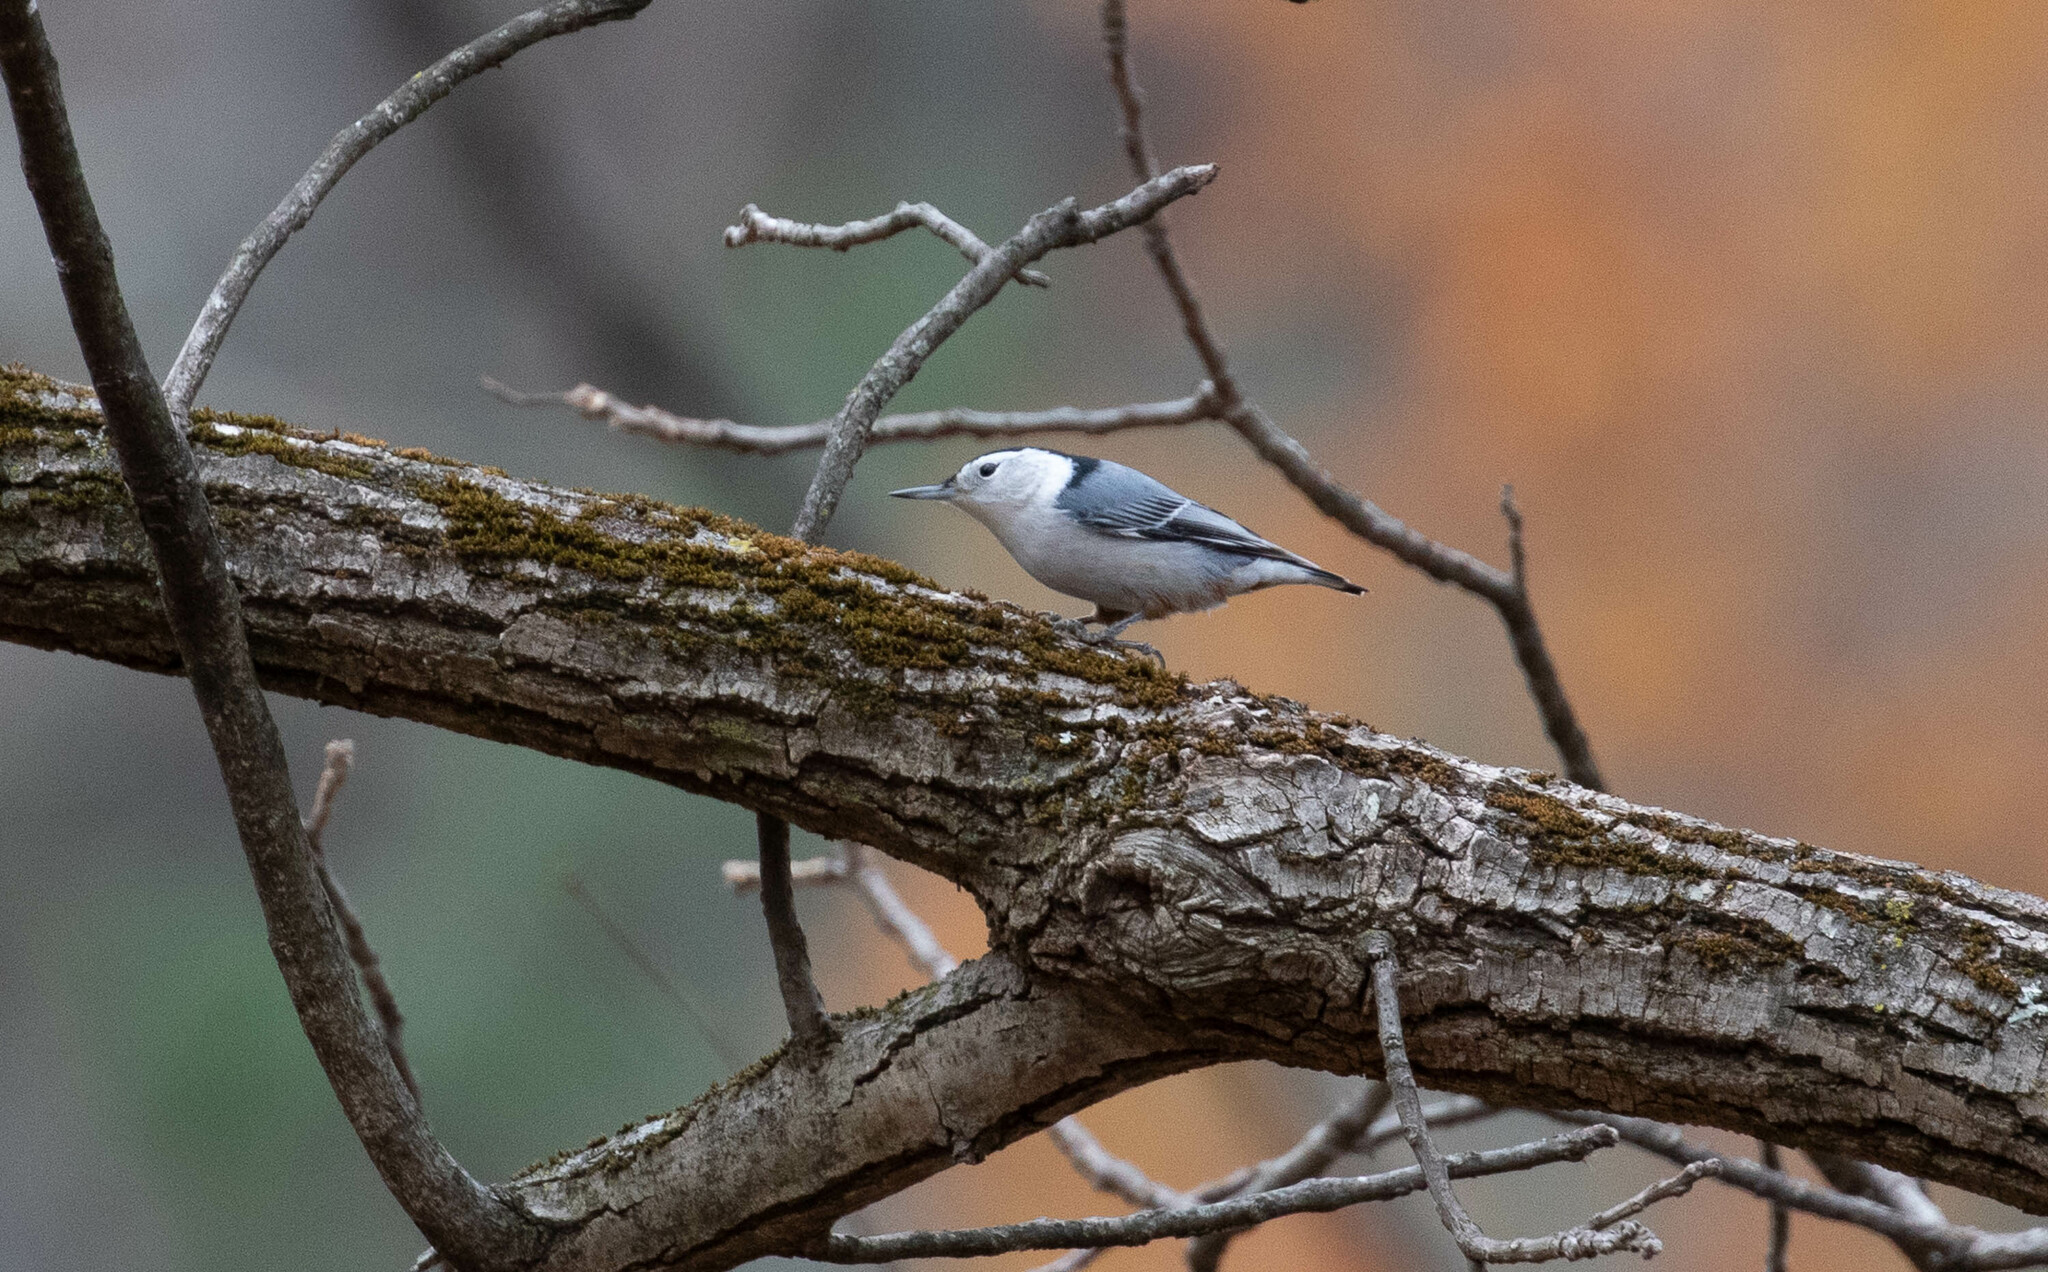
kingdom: Animalia
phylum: Chordata
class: Aves
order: Passeriformes
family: Sittidae
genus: Sitta
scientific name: Sitta carolinensis
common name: White-breasted nuthatch
